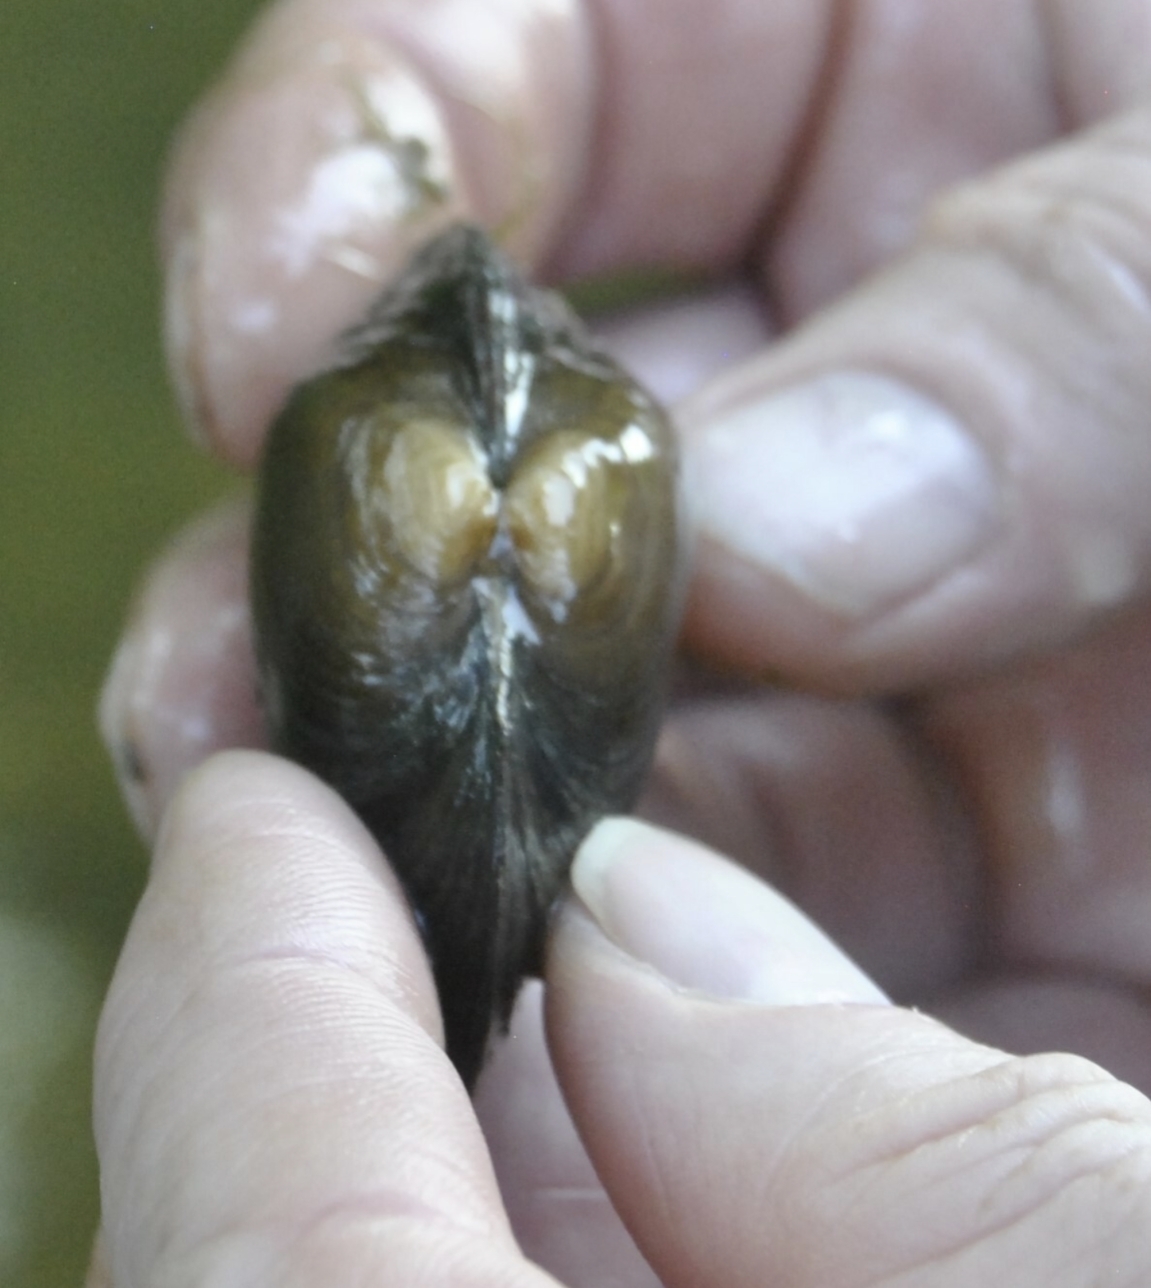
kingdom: Animalia
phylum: Mollusca
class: Bivalvia
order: Unionida
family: Unionidae
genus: Strophitus
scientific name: Strophitus undulatus
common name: Creeper
